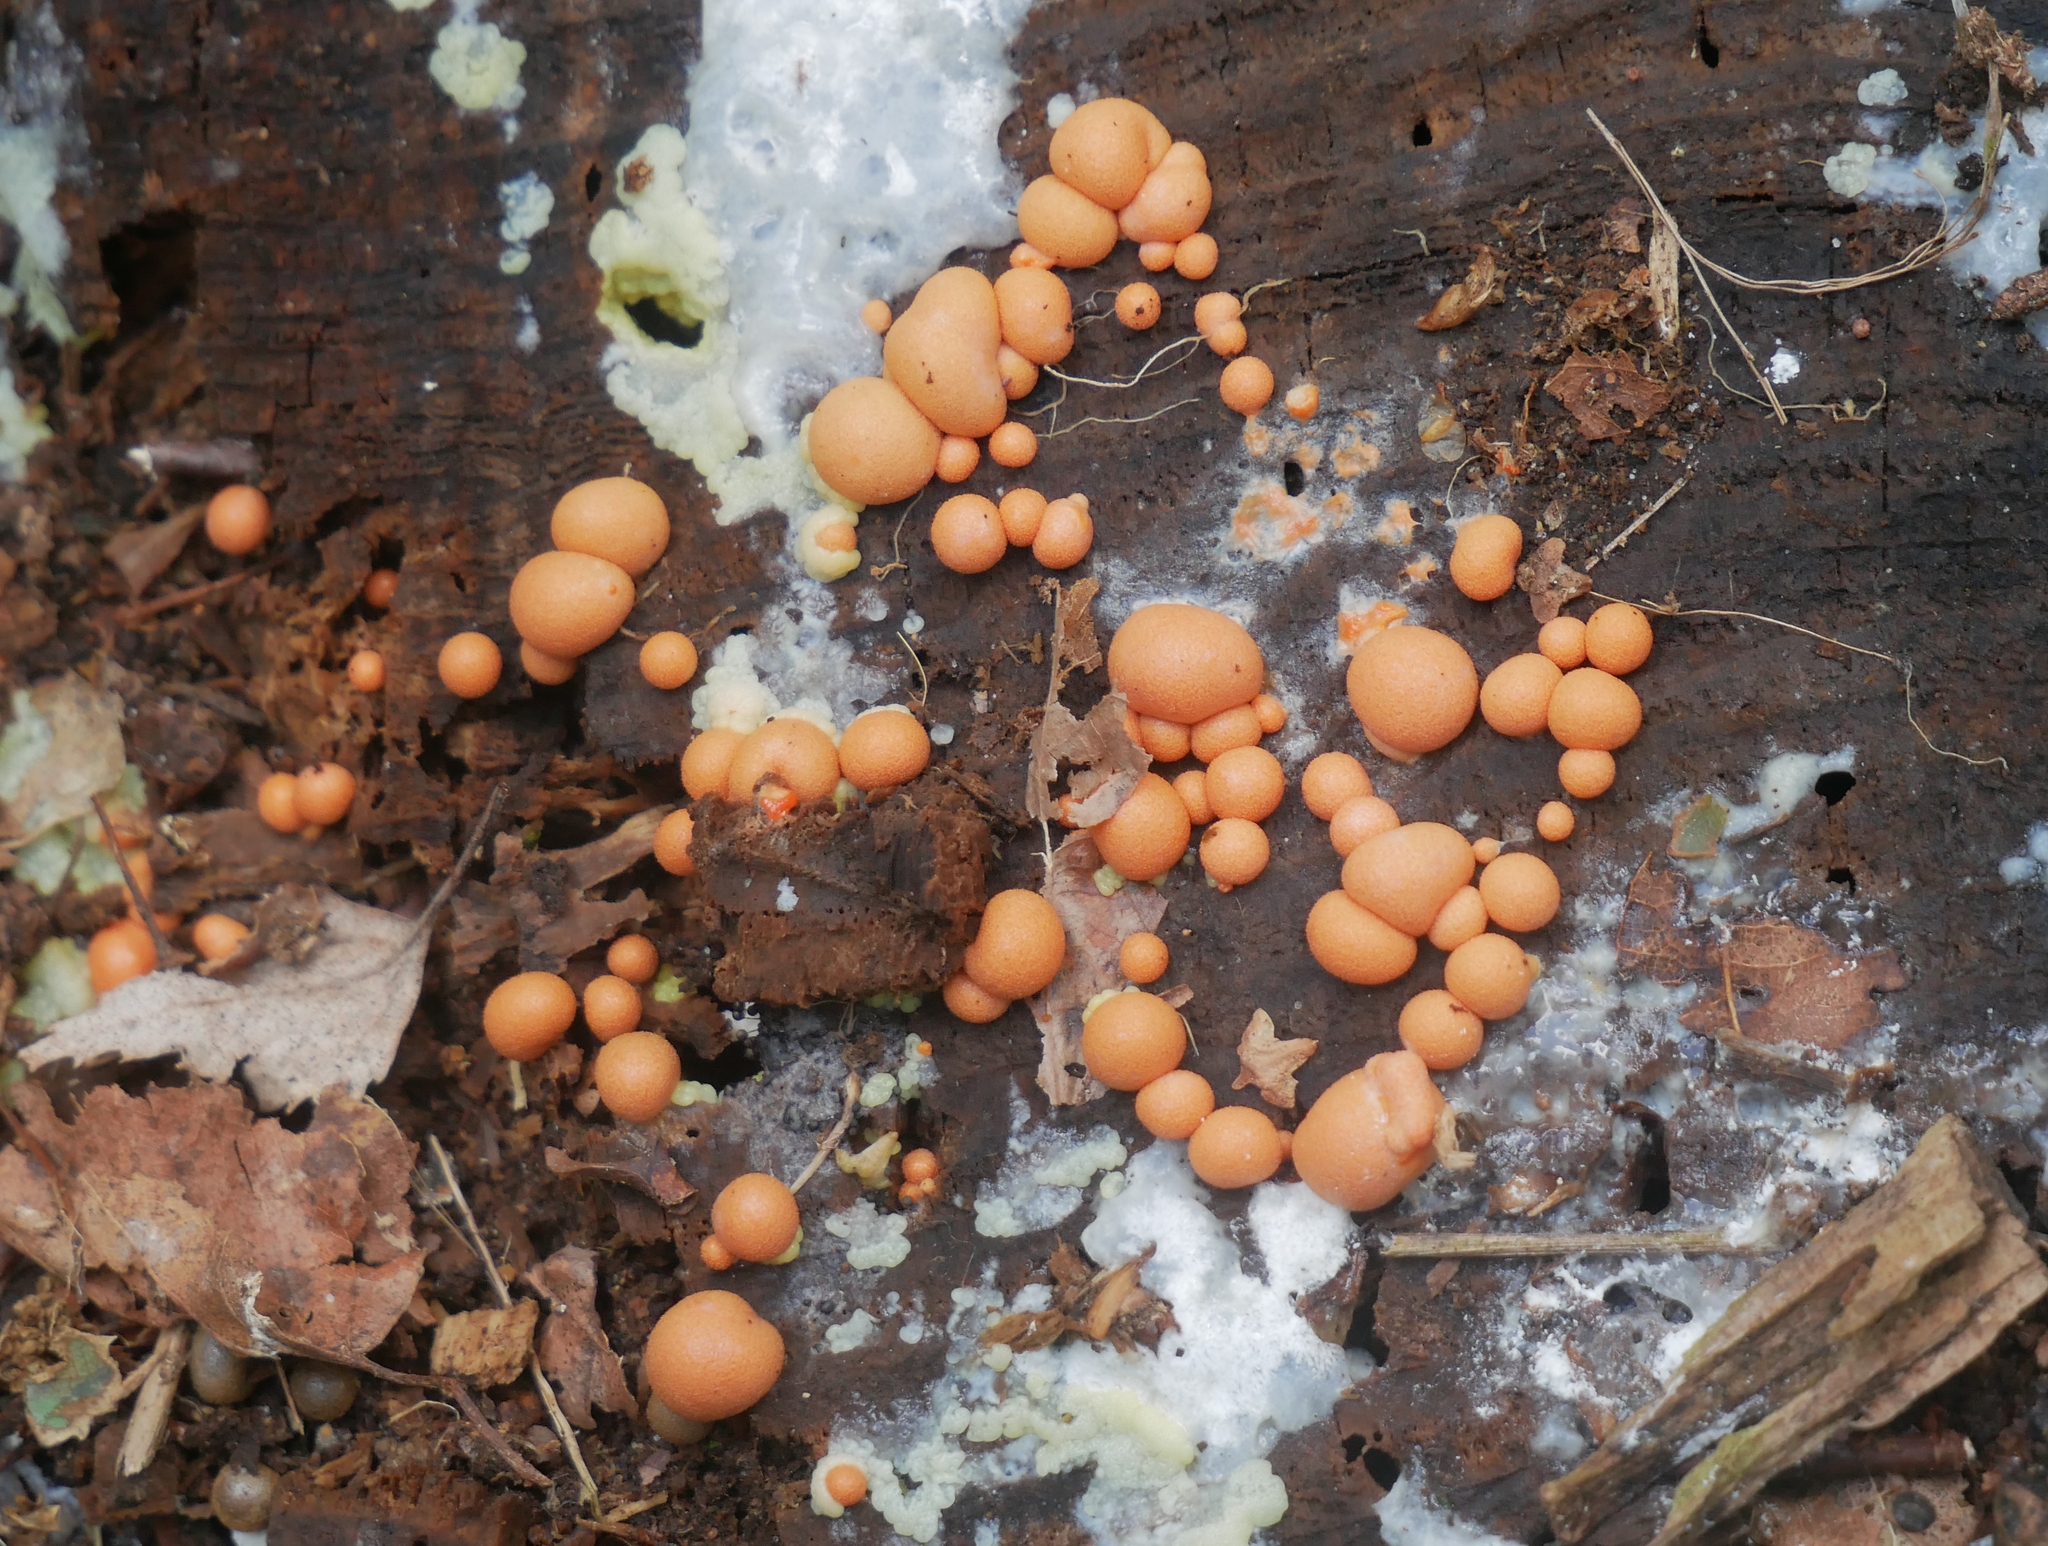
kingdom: Protozoa
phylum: Mycetozoa
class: Myxomycetes
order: Cribrariales
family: Tubiferaceae
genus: Lycogala
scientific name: Lycogala epidendrum
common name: Wolf's milk
